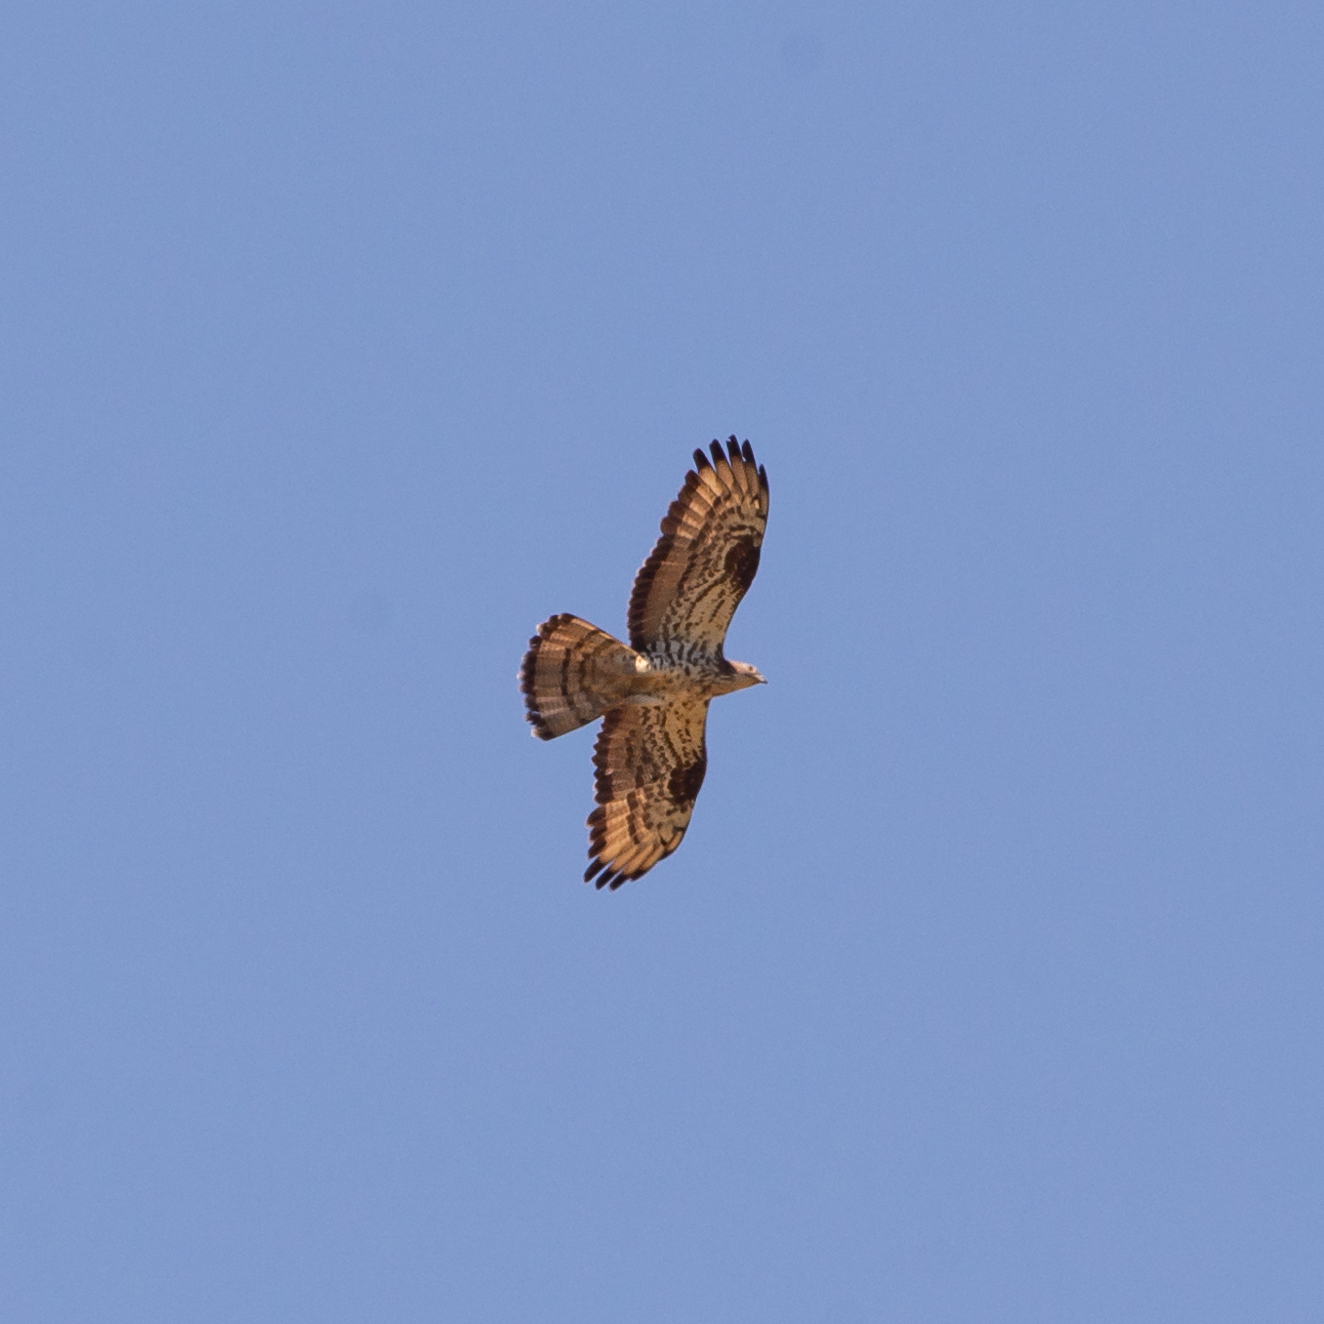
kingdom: Animalia
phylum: Chordata
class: Aves
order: Accipitriformes
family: Accipitridae
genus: Pernis
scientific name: Pernis apivorus
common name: European honey buzzard
